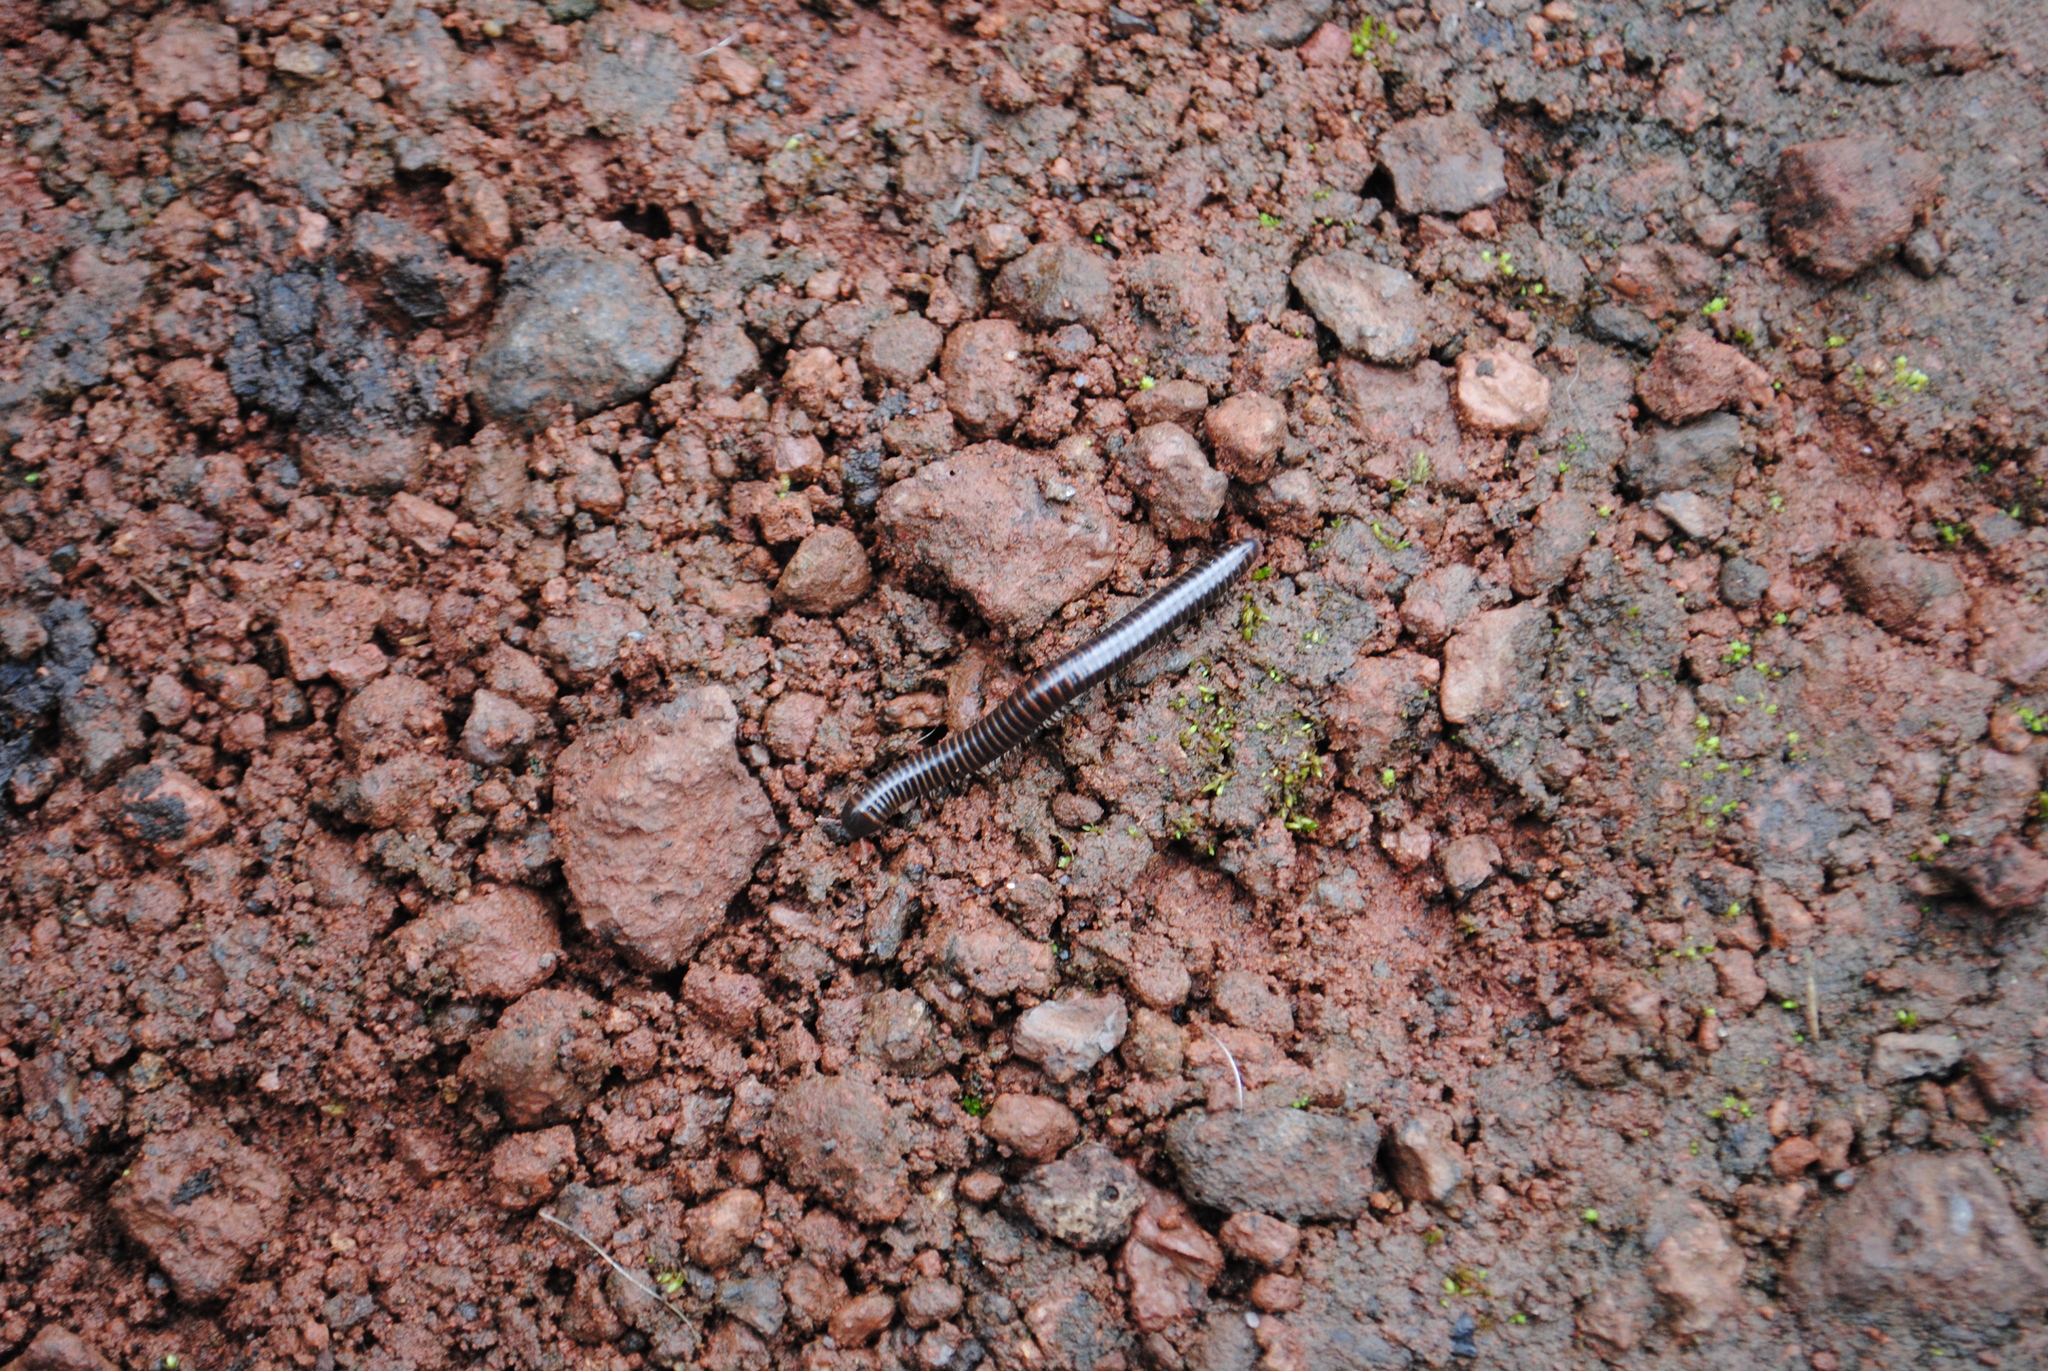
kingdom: Animalia
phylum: Arthropoda
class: Diplopoda
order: Spirostreptida
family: Spirostreptidae
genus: Nanostreptus
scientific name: Nanostreptus geayi
